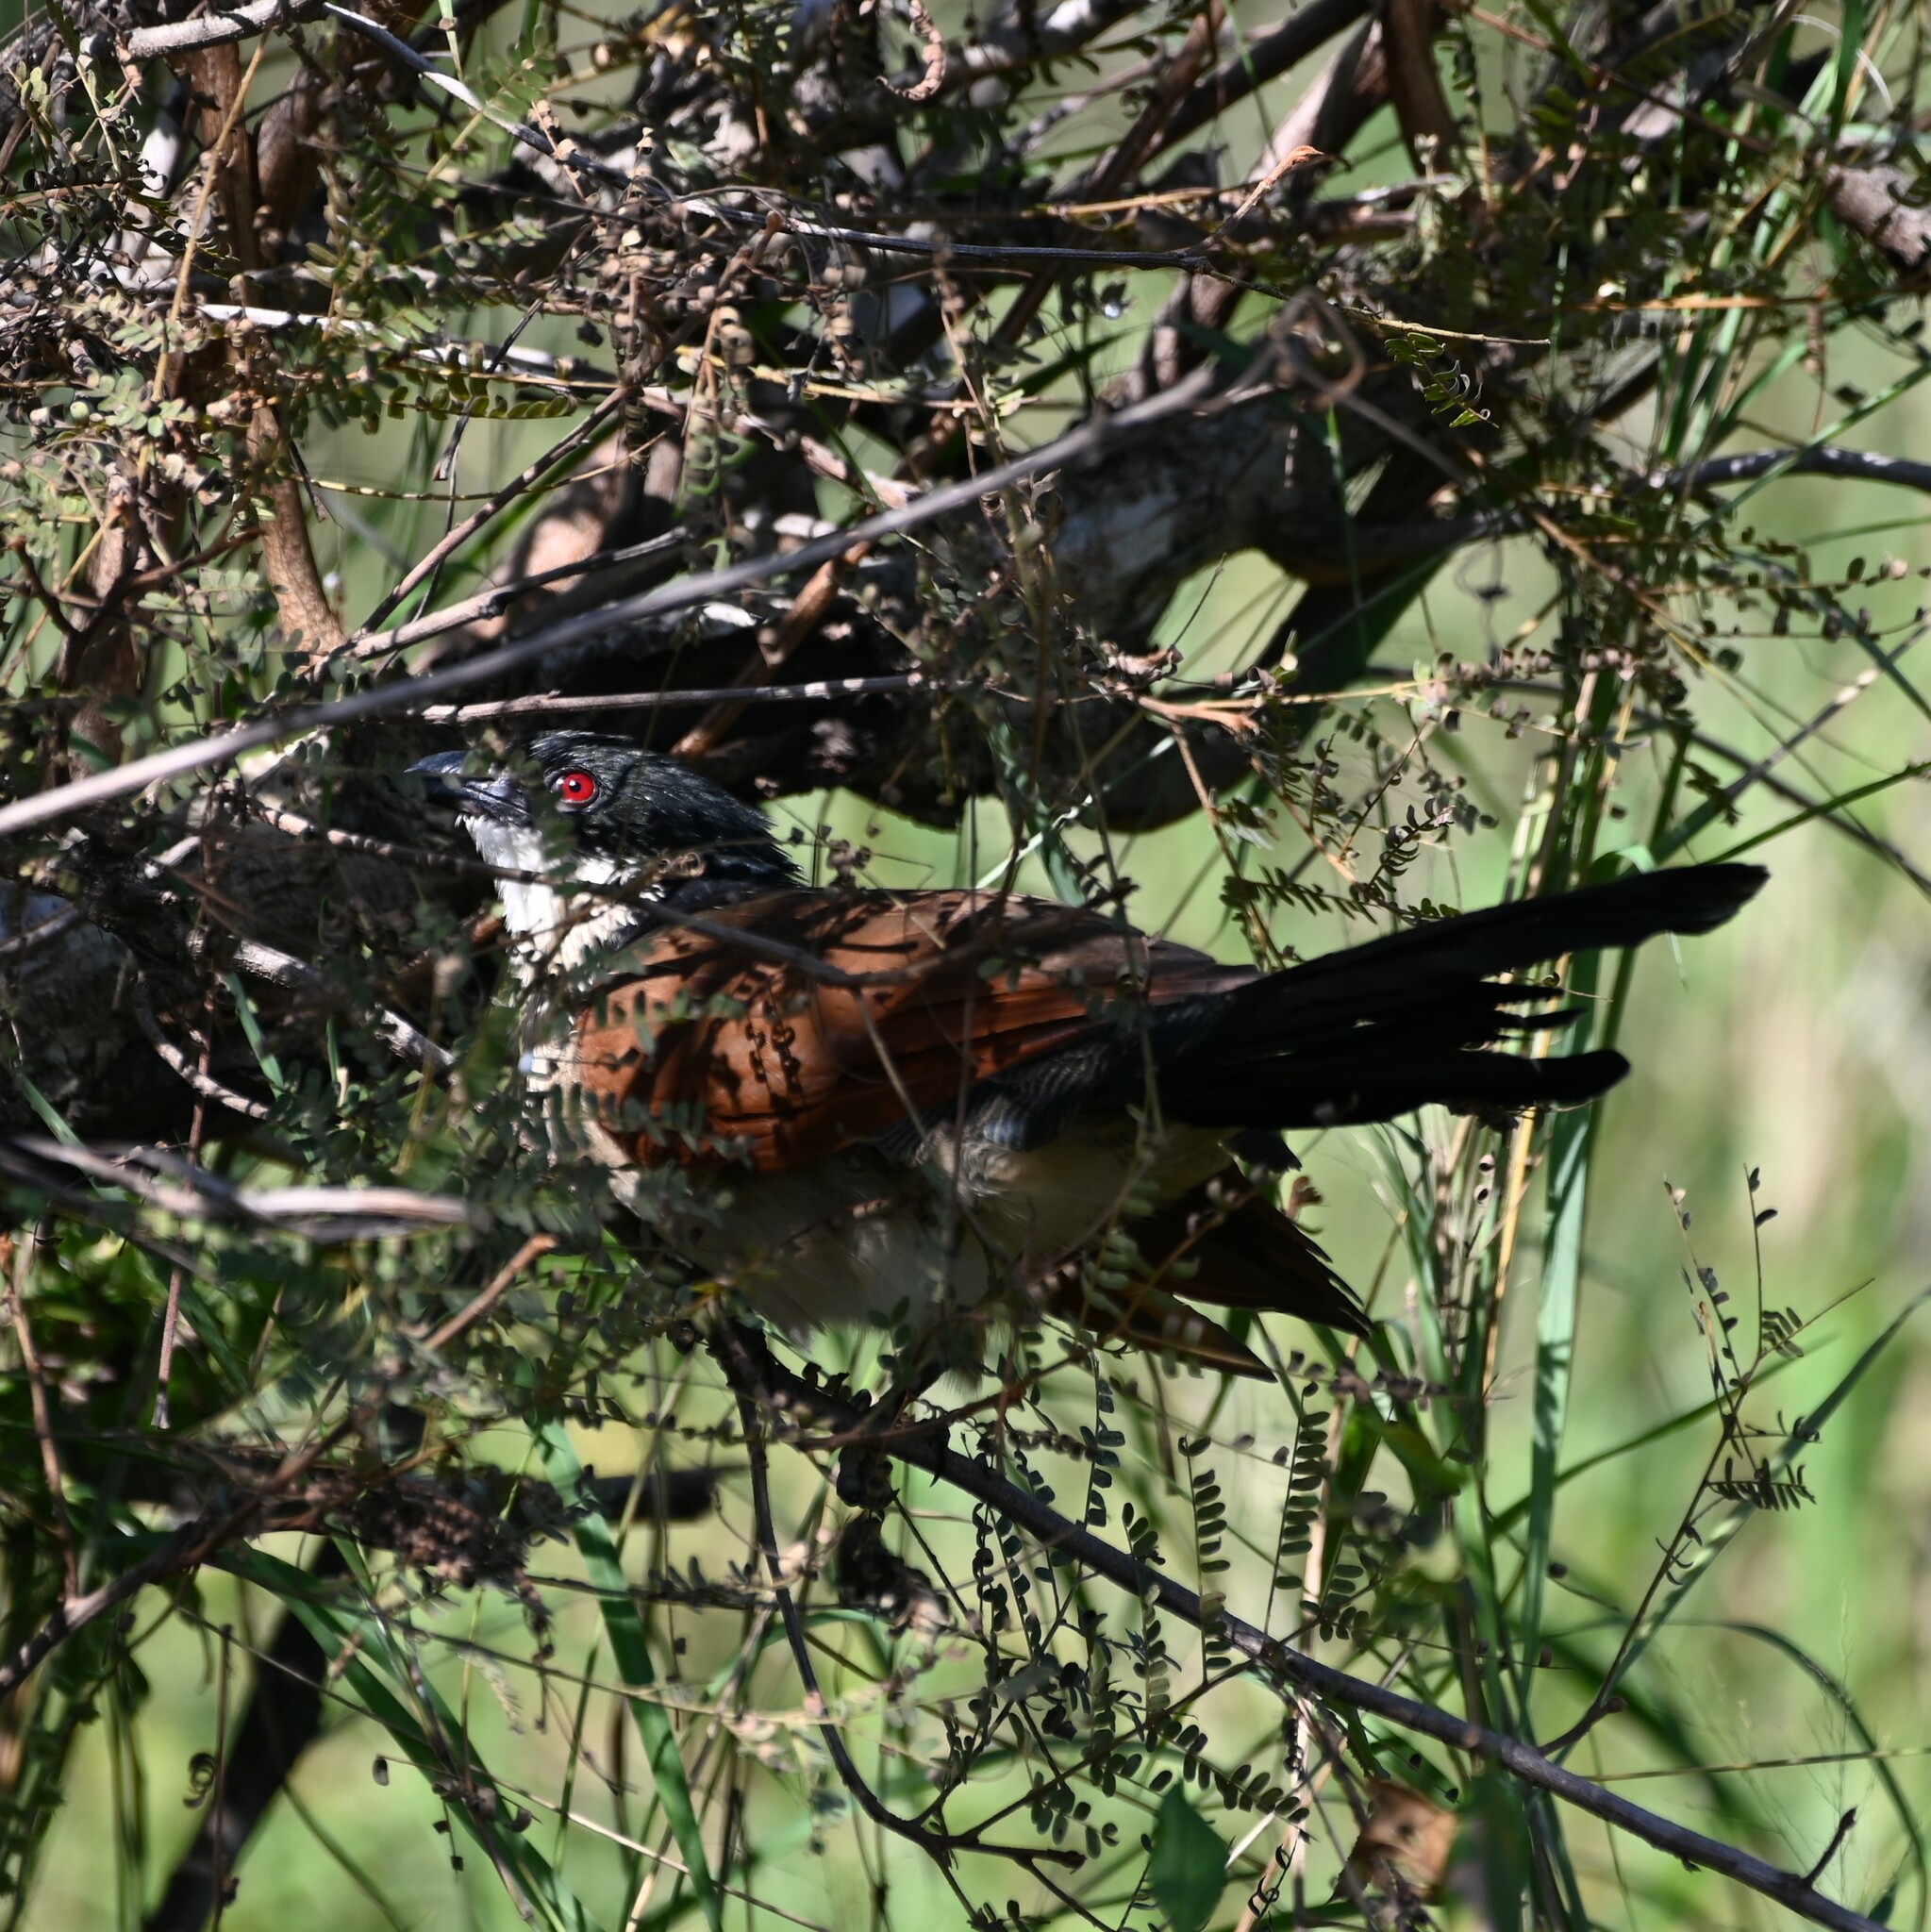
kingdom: Animalia
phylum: Chordata
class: Aves
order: Cuculiformes
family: Cuculidae
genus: Centropus
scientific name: Centropus superciliosus
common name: White-browed coucal
